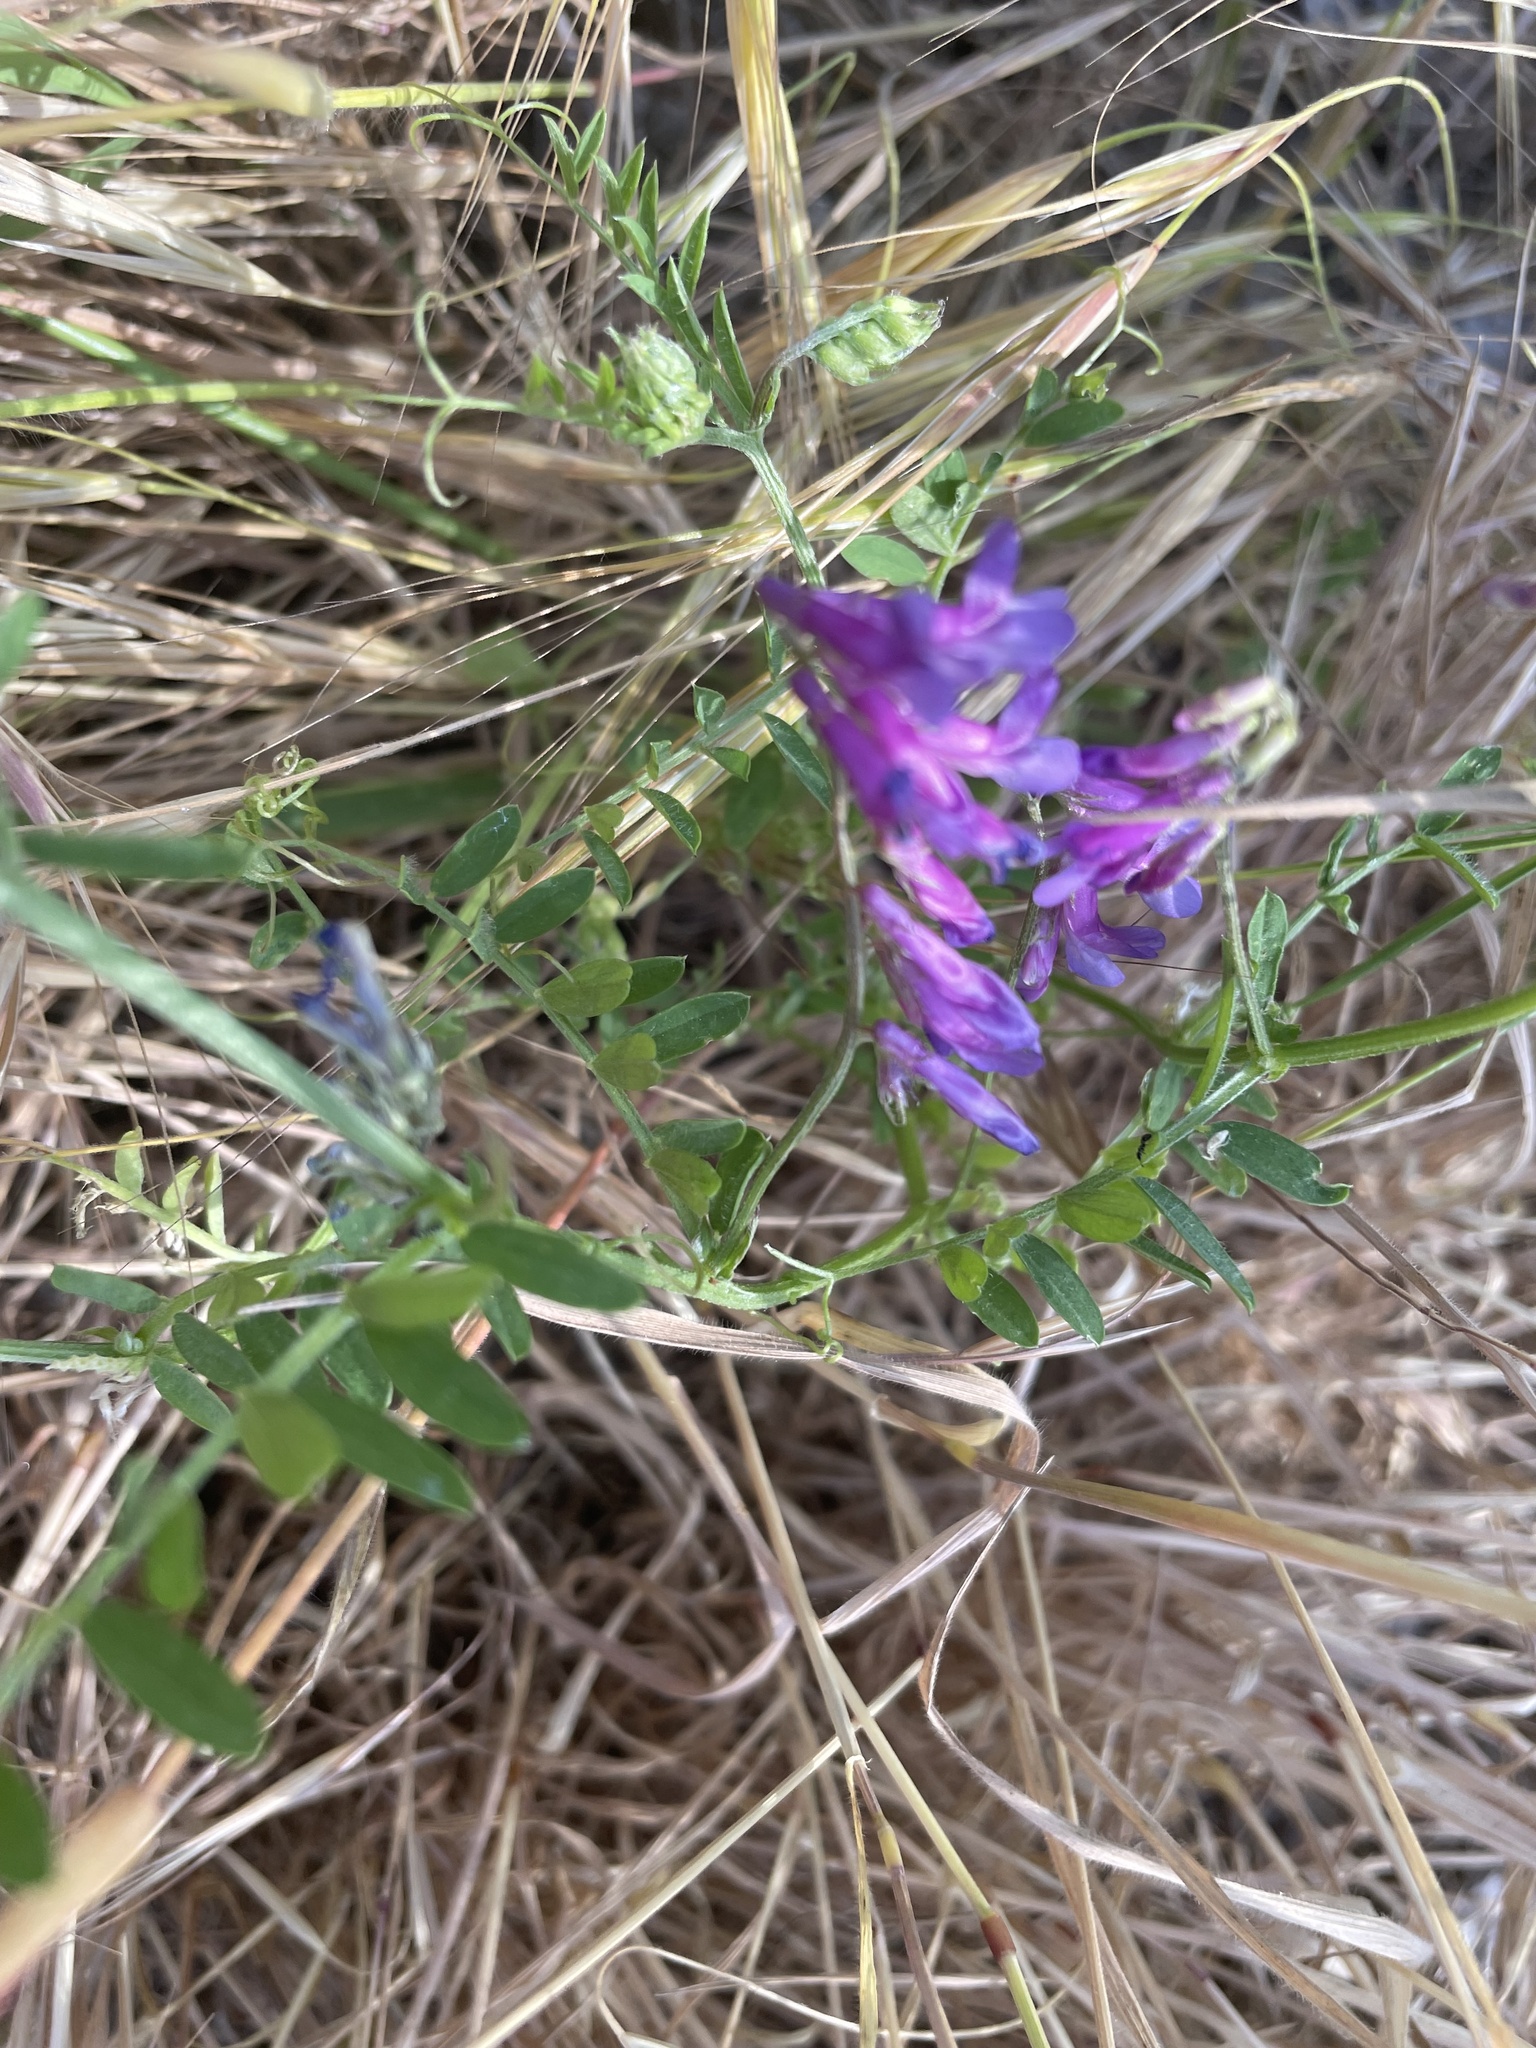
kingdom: Plantae
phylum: Tracheophyta
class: Magnoliopsida
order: Fabales
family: Fabaceae
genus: Vicia
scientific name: Vicia villosa
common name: Fodder vetch
